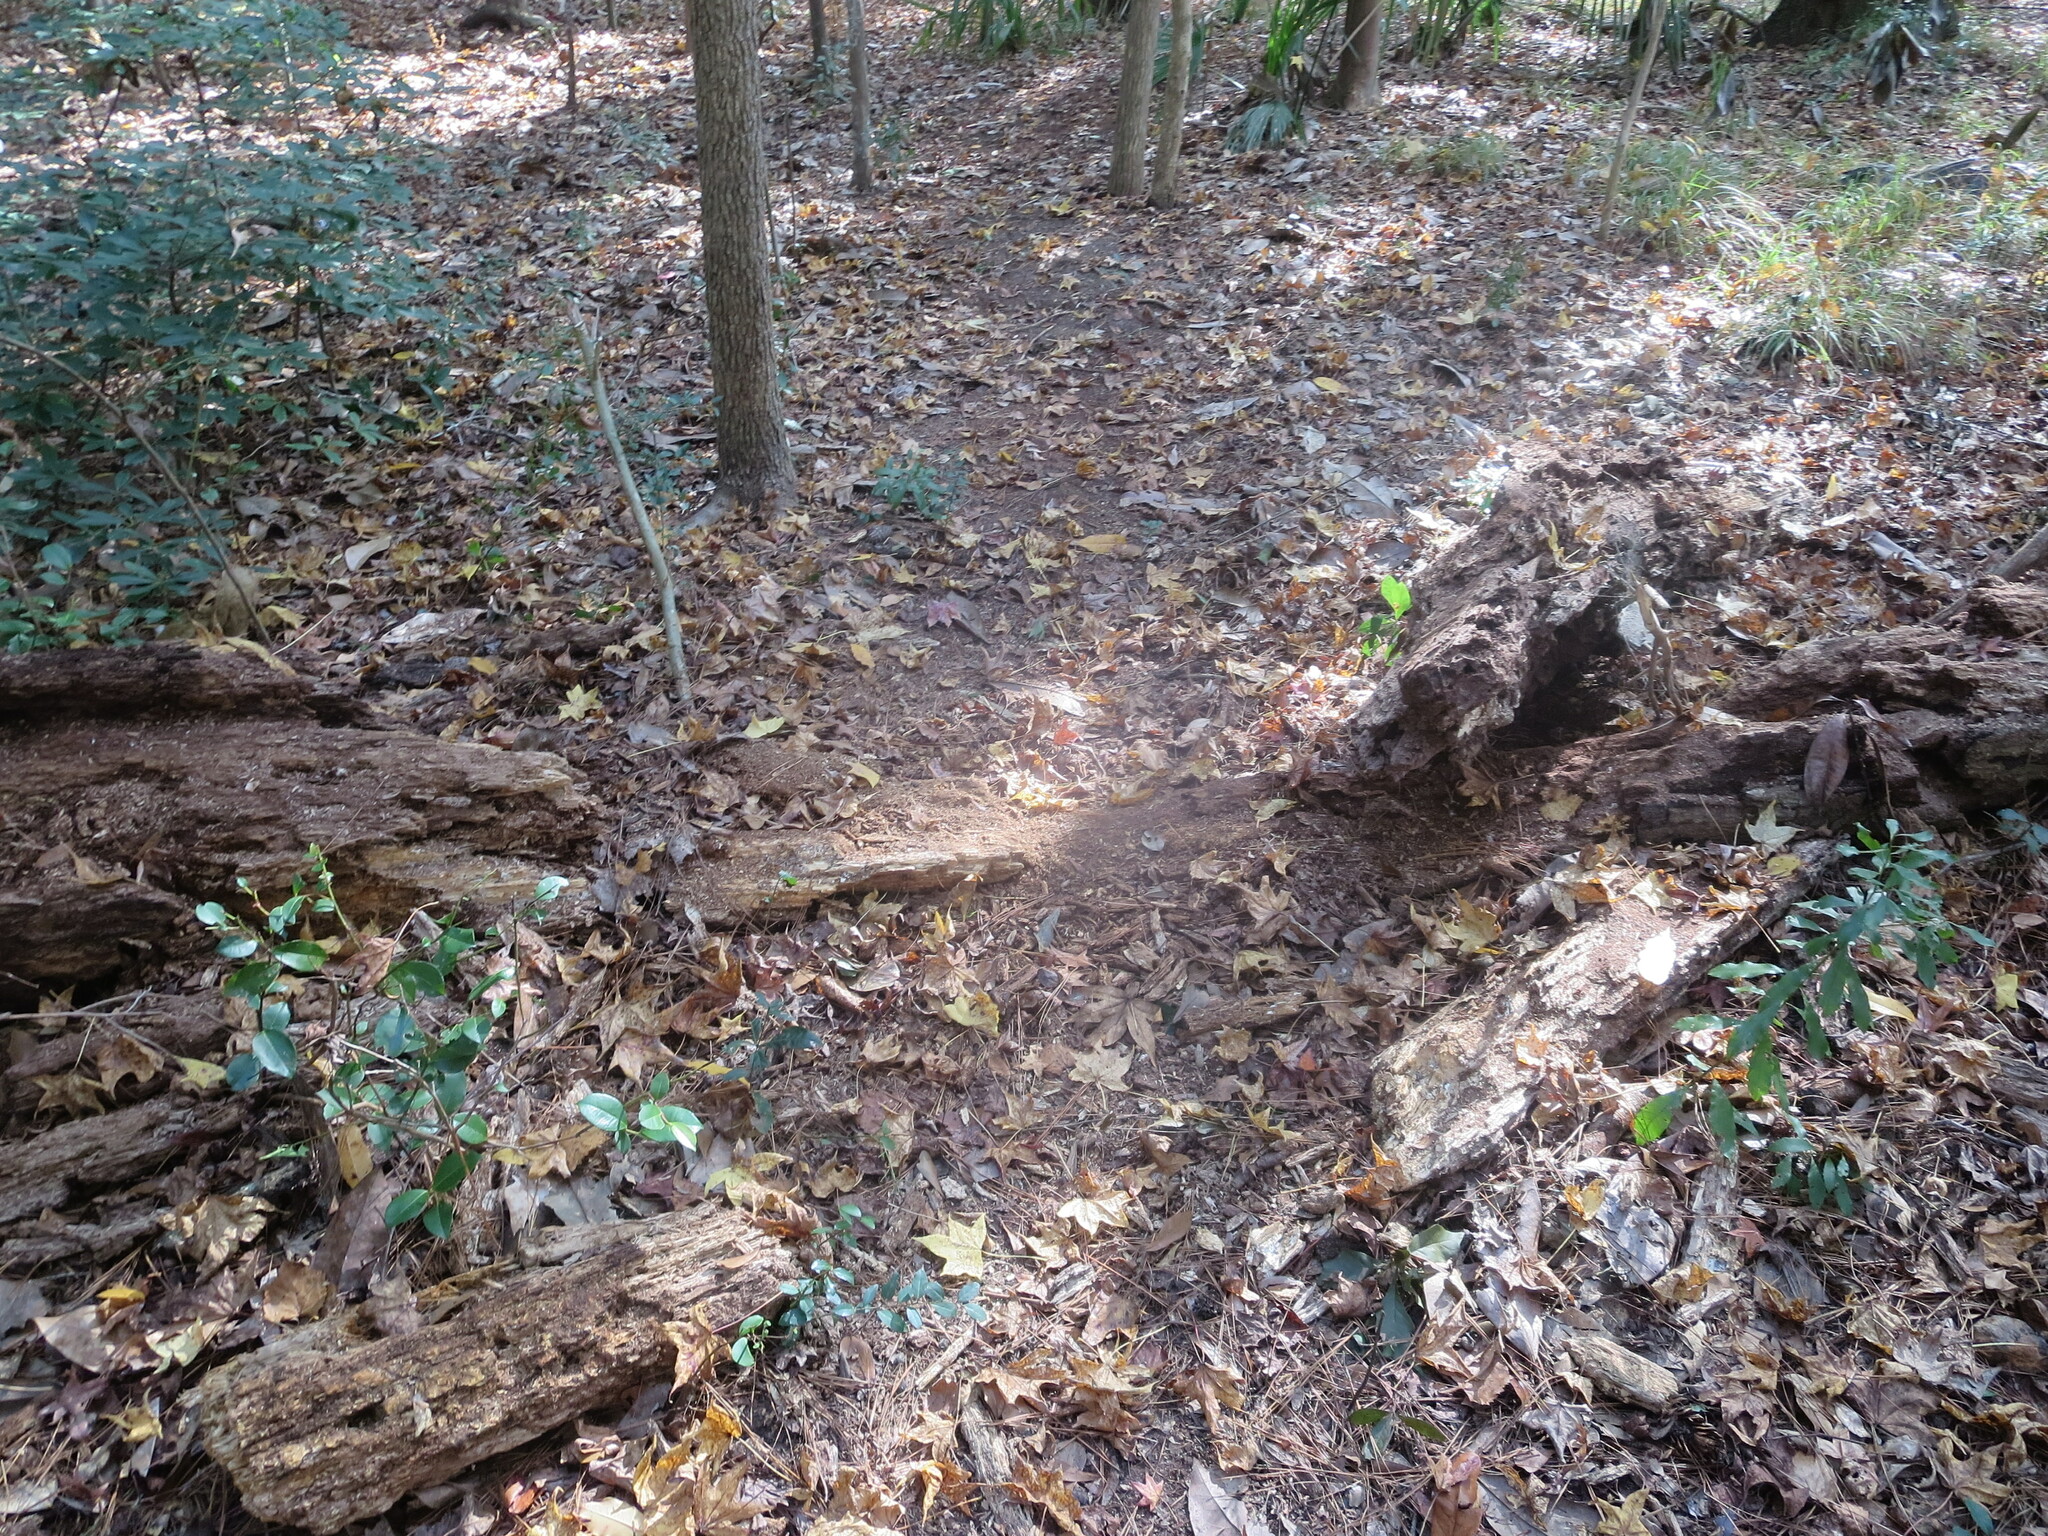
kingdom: Animalia
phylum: Chordata
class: Mammalia
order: Artiodactyla
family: Cervidae
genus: Odocoileus
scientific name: Odocoileus virginianus
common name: White-tailed deer
